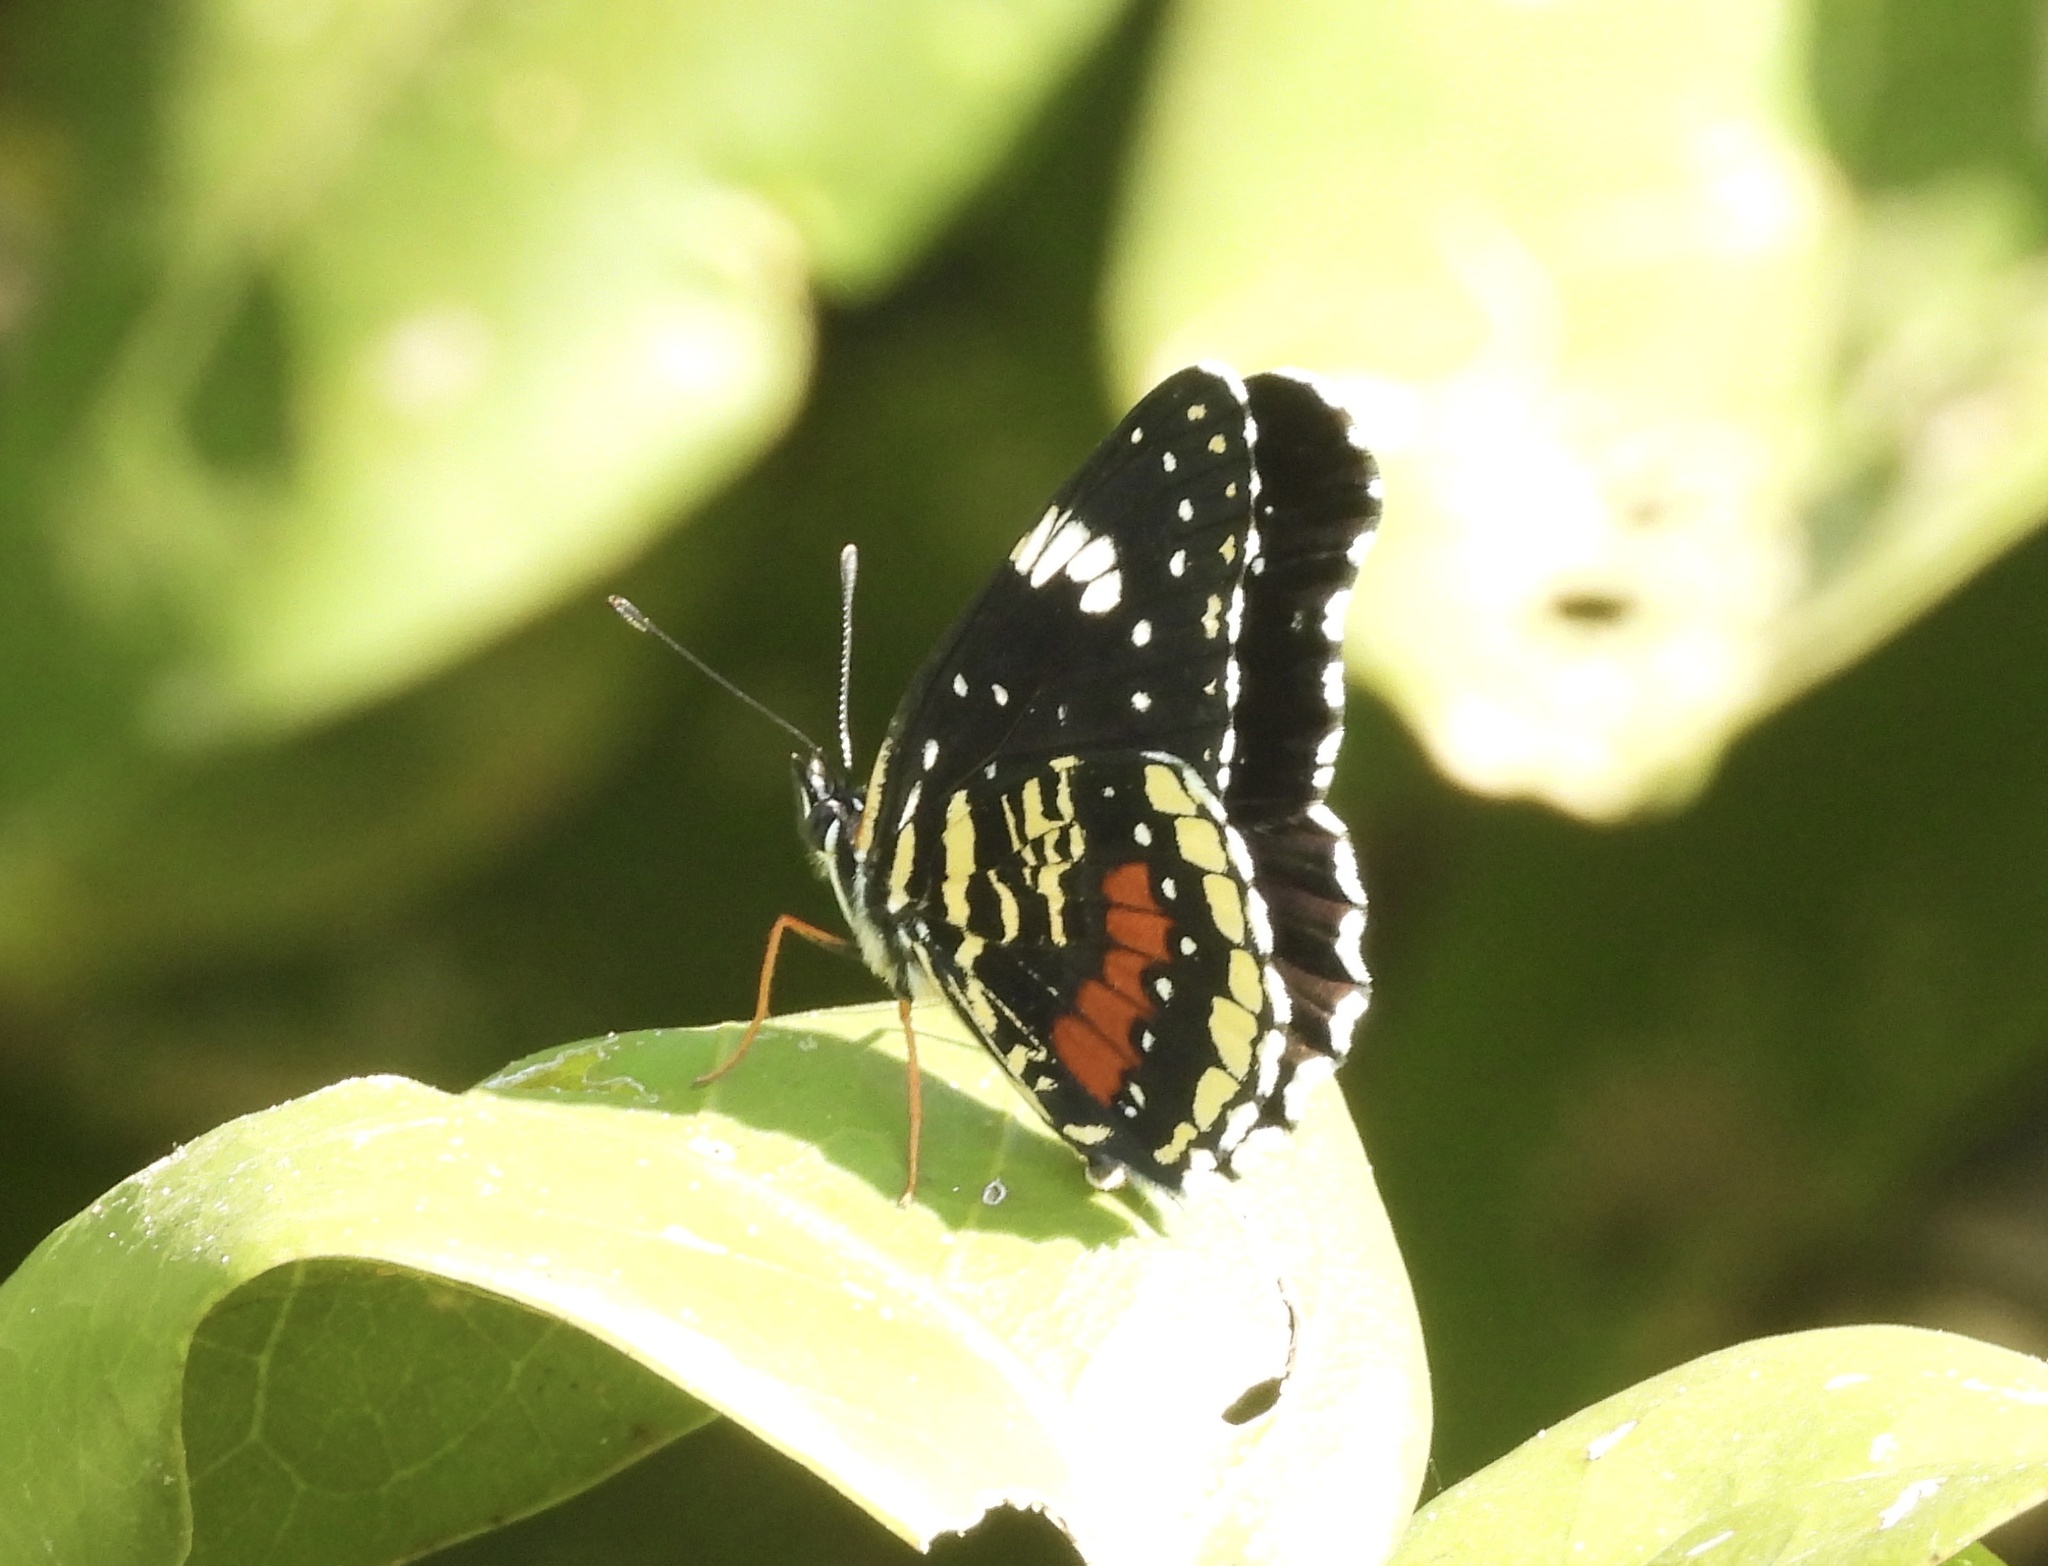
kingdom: Animalia
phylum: Arthropoda
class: Insecta
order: Lepidoptera
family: Nymphalidae
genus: Chlosyne
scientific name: Chlosyne janais
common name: Crimson patch
